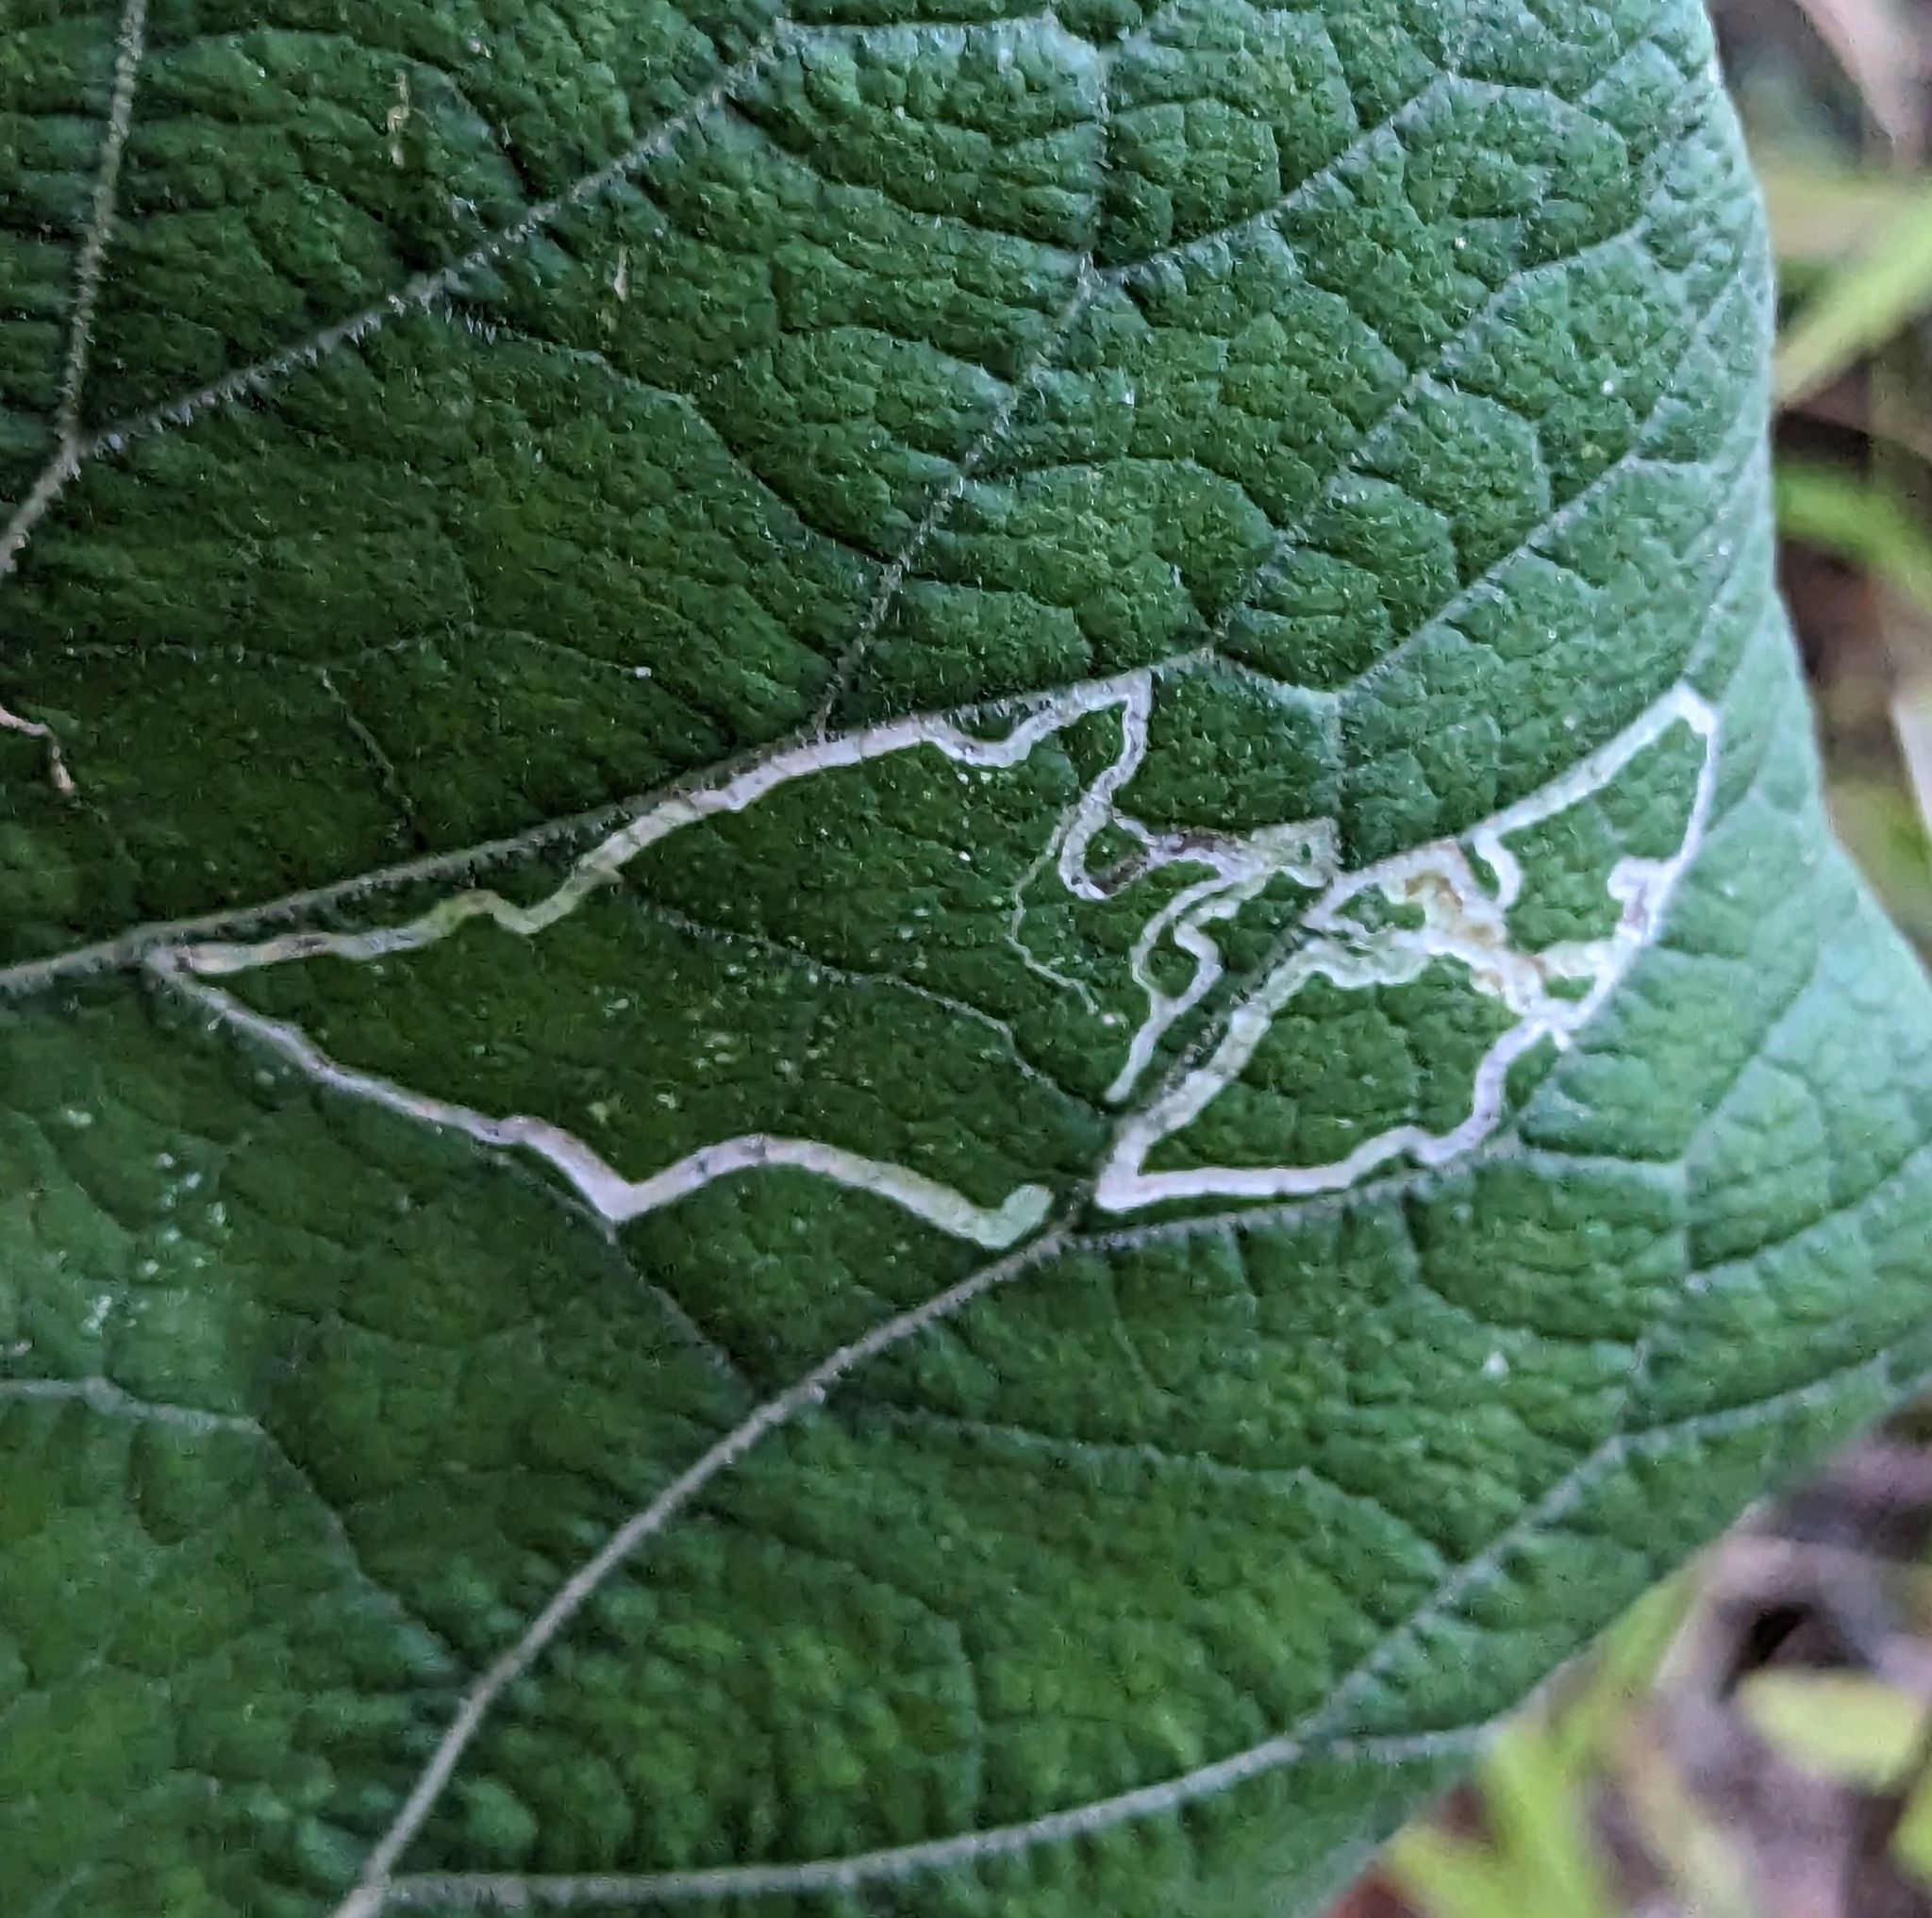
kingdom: Animalia
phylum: Arthropoda
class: Insecta
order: Diptera
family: Agromyzidae
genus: Liriomyza
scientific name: Liriomyza arctii
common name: Burdock leafminer
